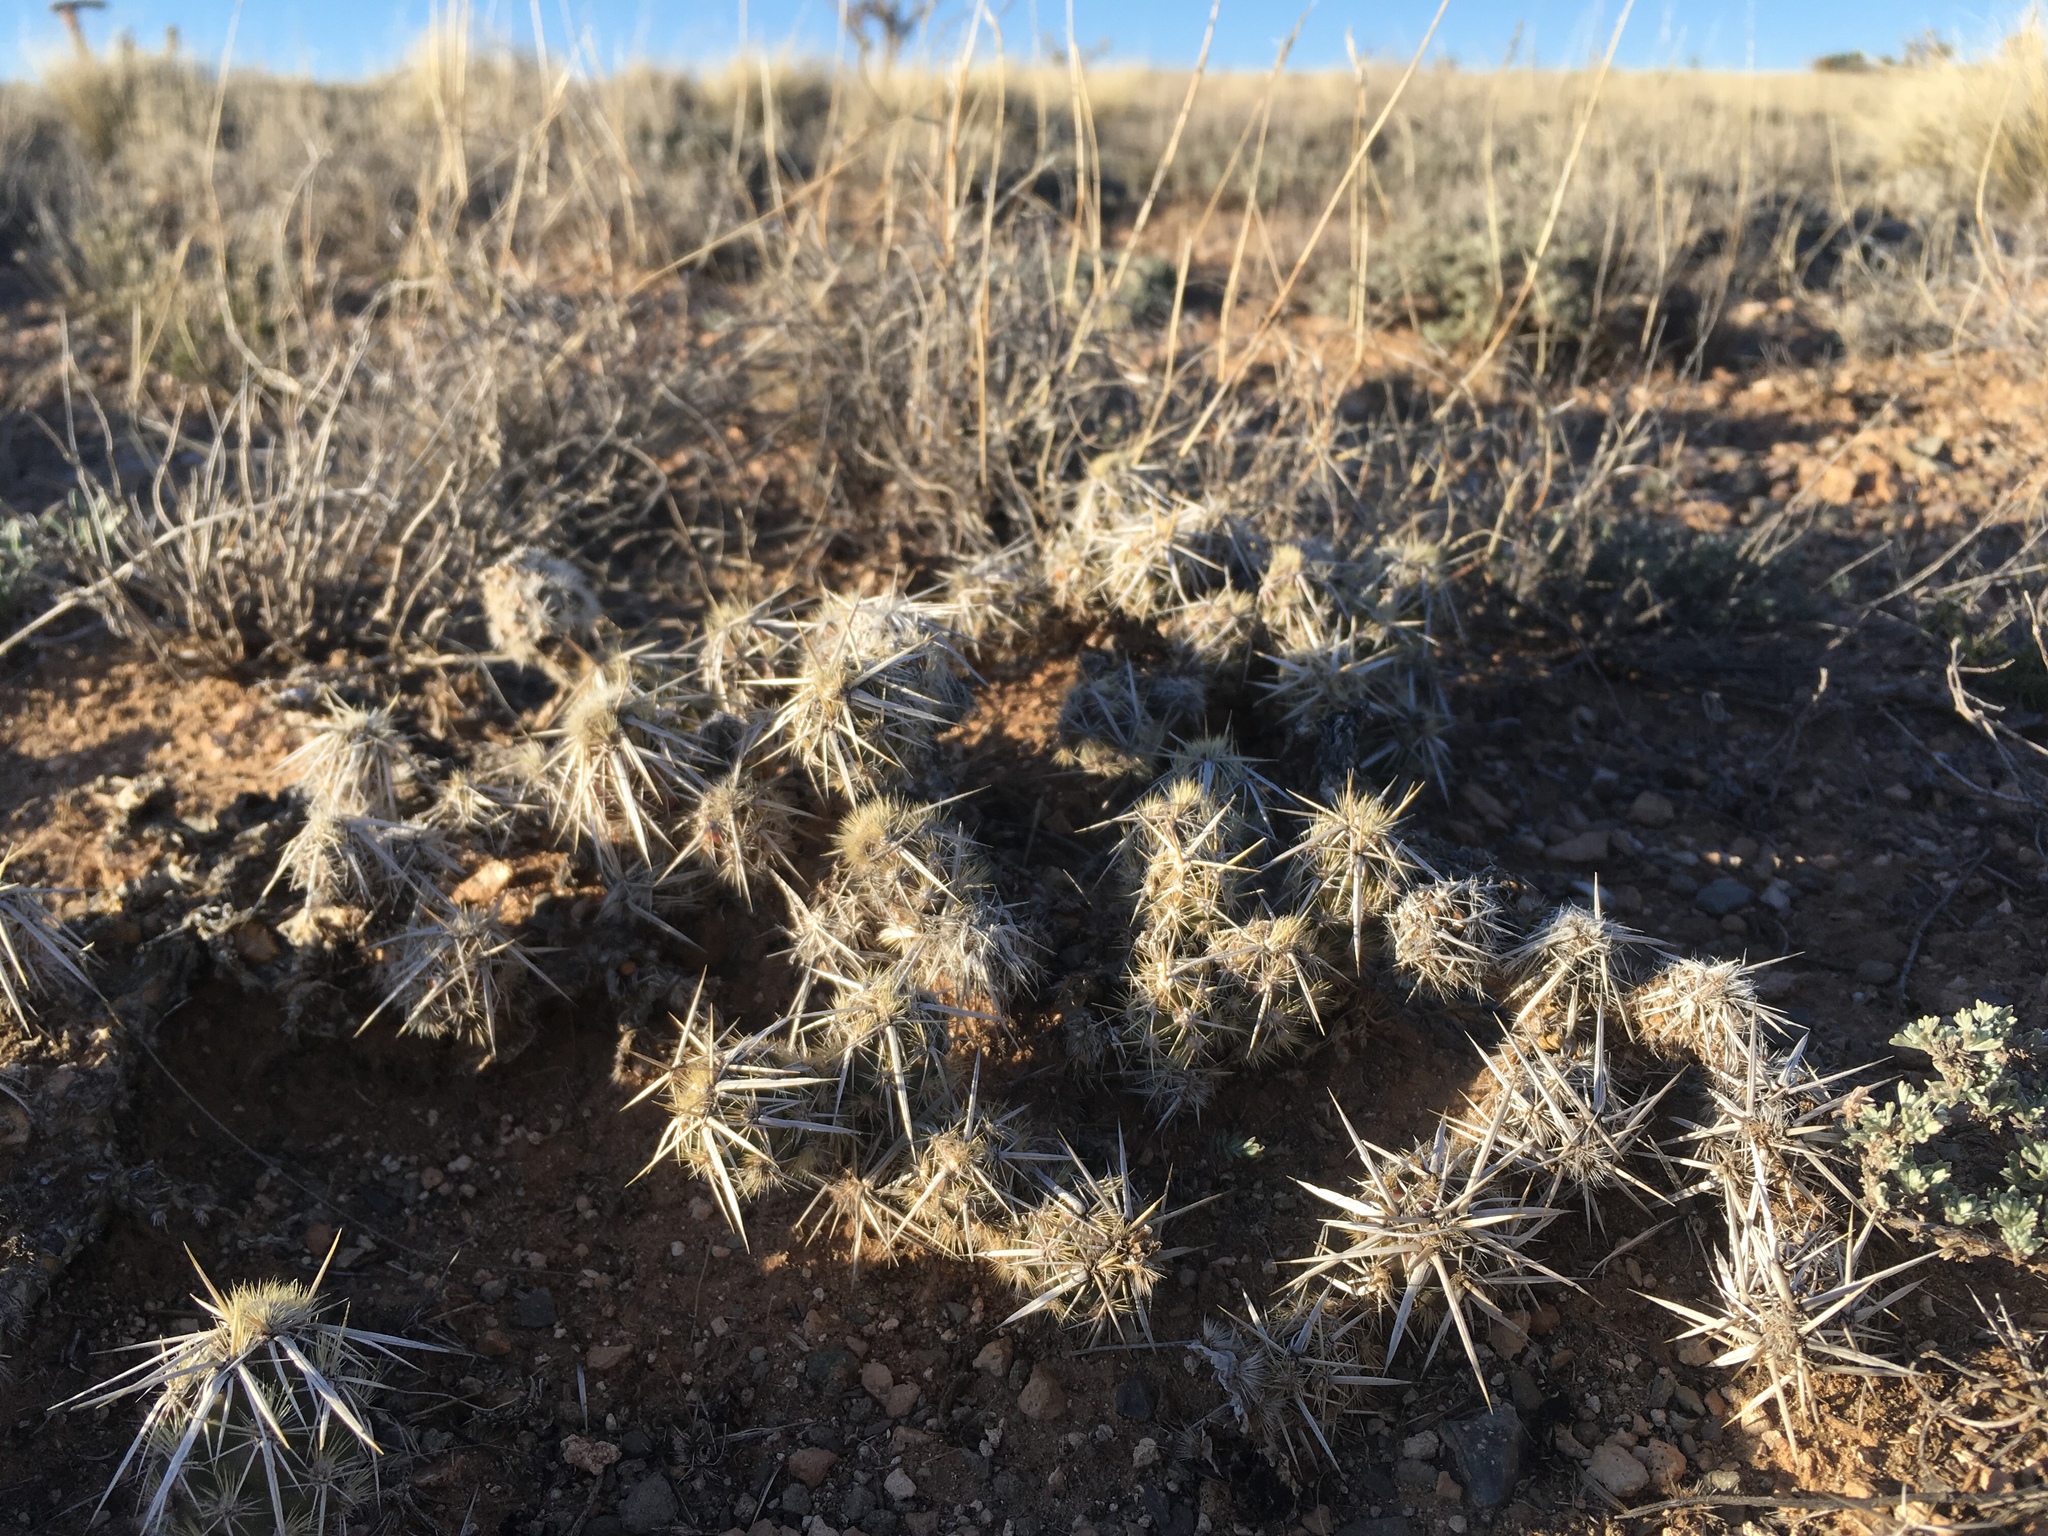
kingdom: Plantae
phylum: Tracheophyta
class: Magnoliopsida
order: Caryophyllales
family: Cactaceae
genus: Grusonia
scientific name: Grusonia clavata
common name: Club cholla
